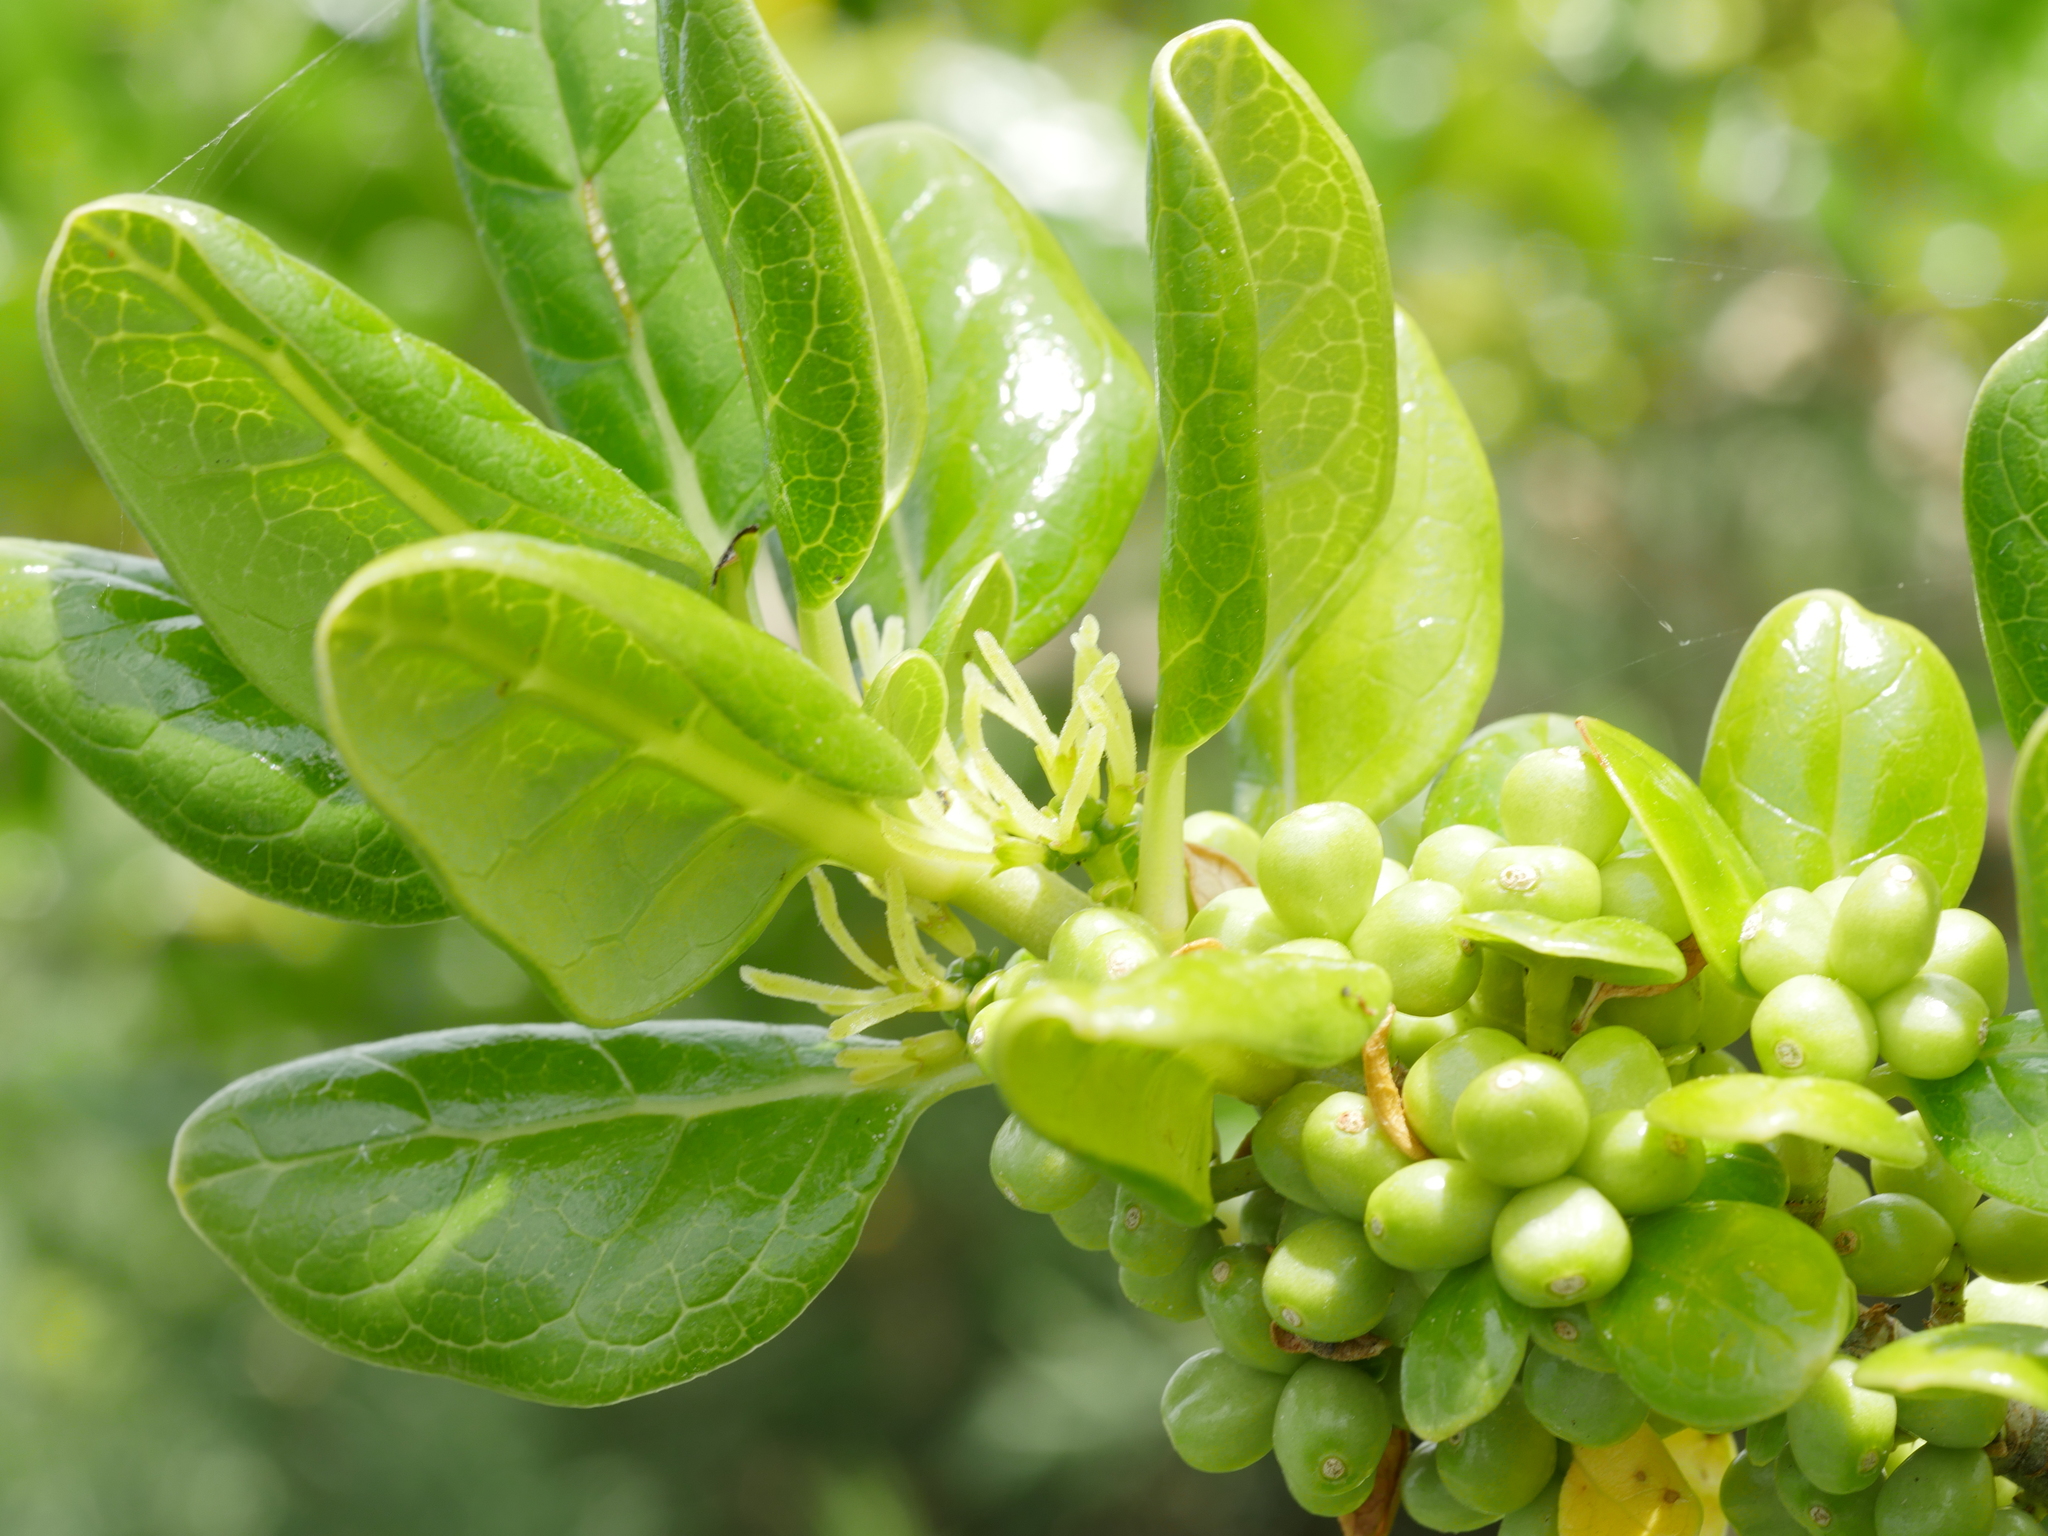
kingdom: Plantae
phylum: Tracheophyta
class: Magnoliopsida
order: Gentianales
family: Rubiaceae
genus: Coprosma
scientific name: Coprosma repens
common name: Tree bedstraw
